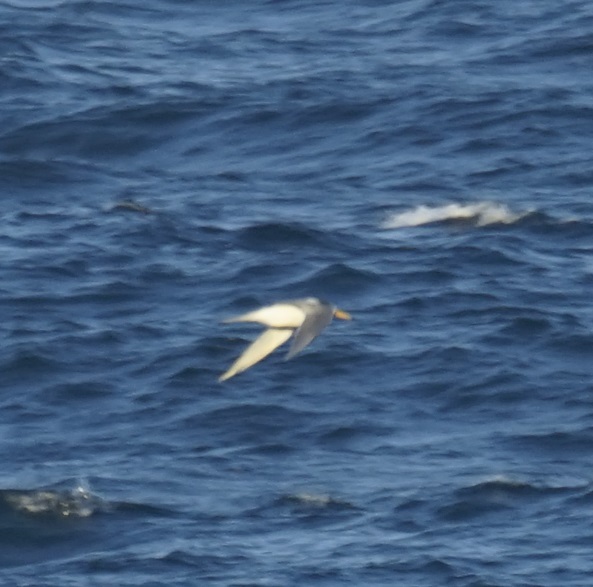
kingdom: Animalia
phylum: Chordata
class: Aves
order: Charadriiformes
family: Laridae
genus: Thalasseus
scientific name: Thalasseus bergii
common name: Greater crested tern
